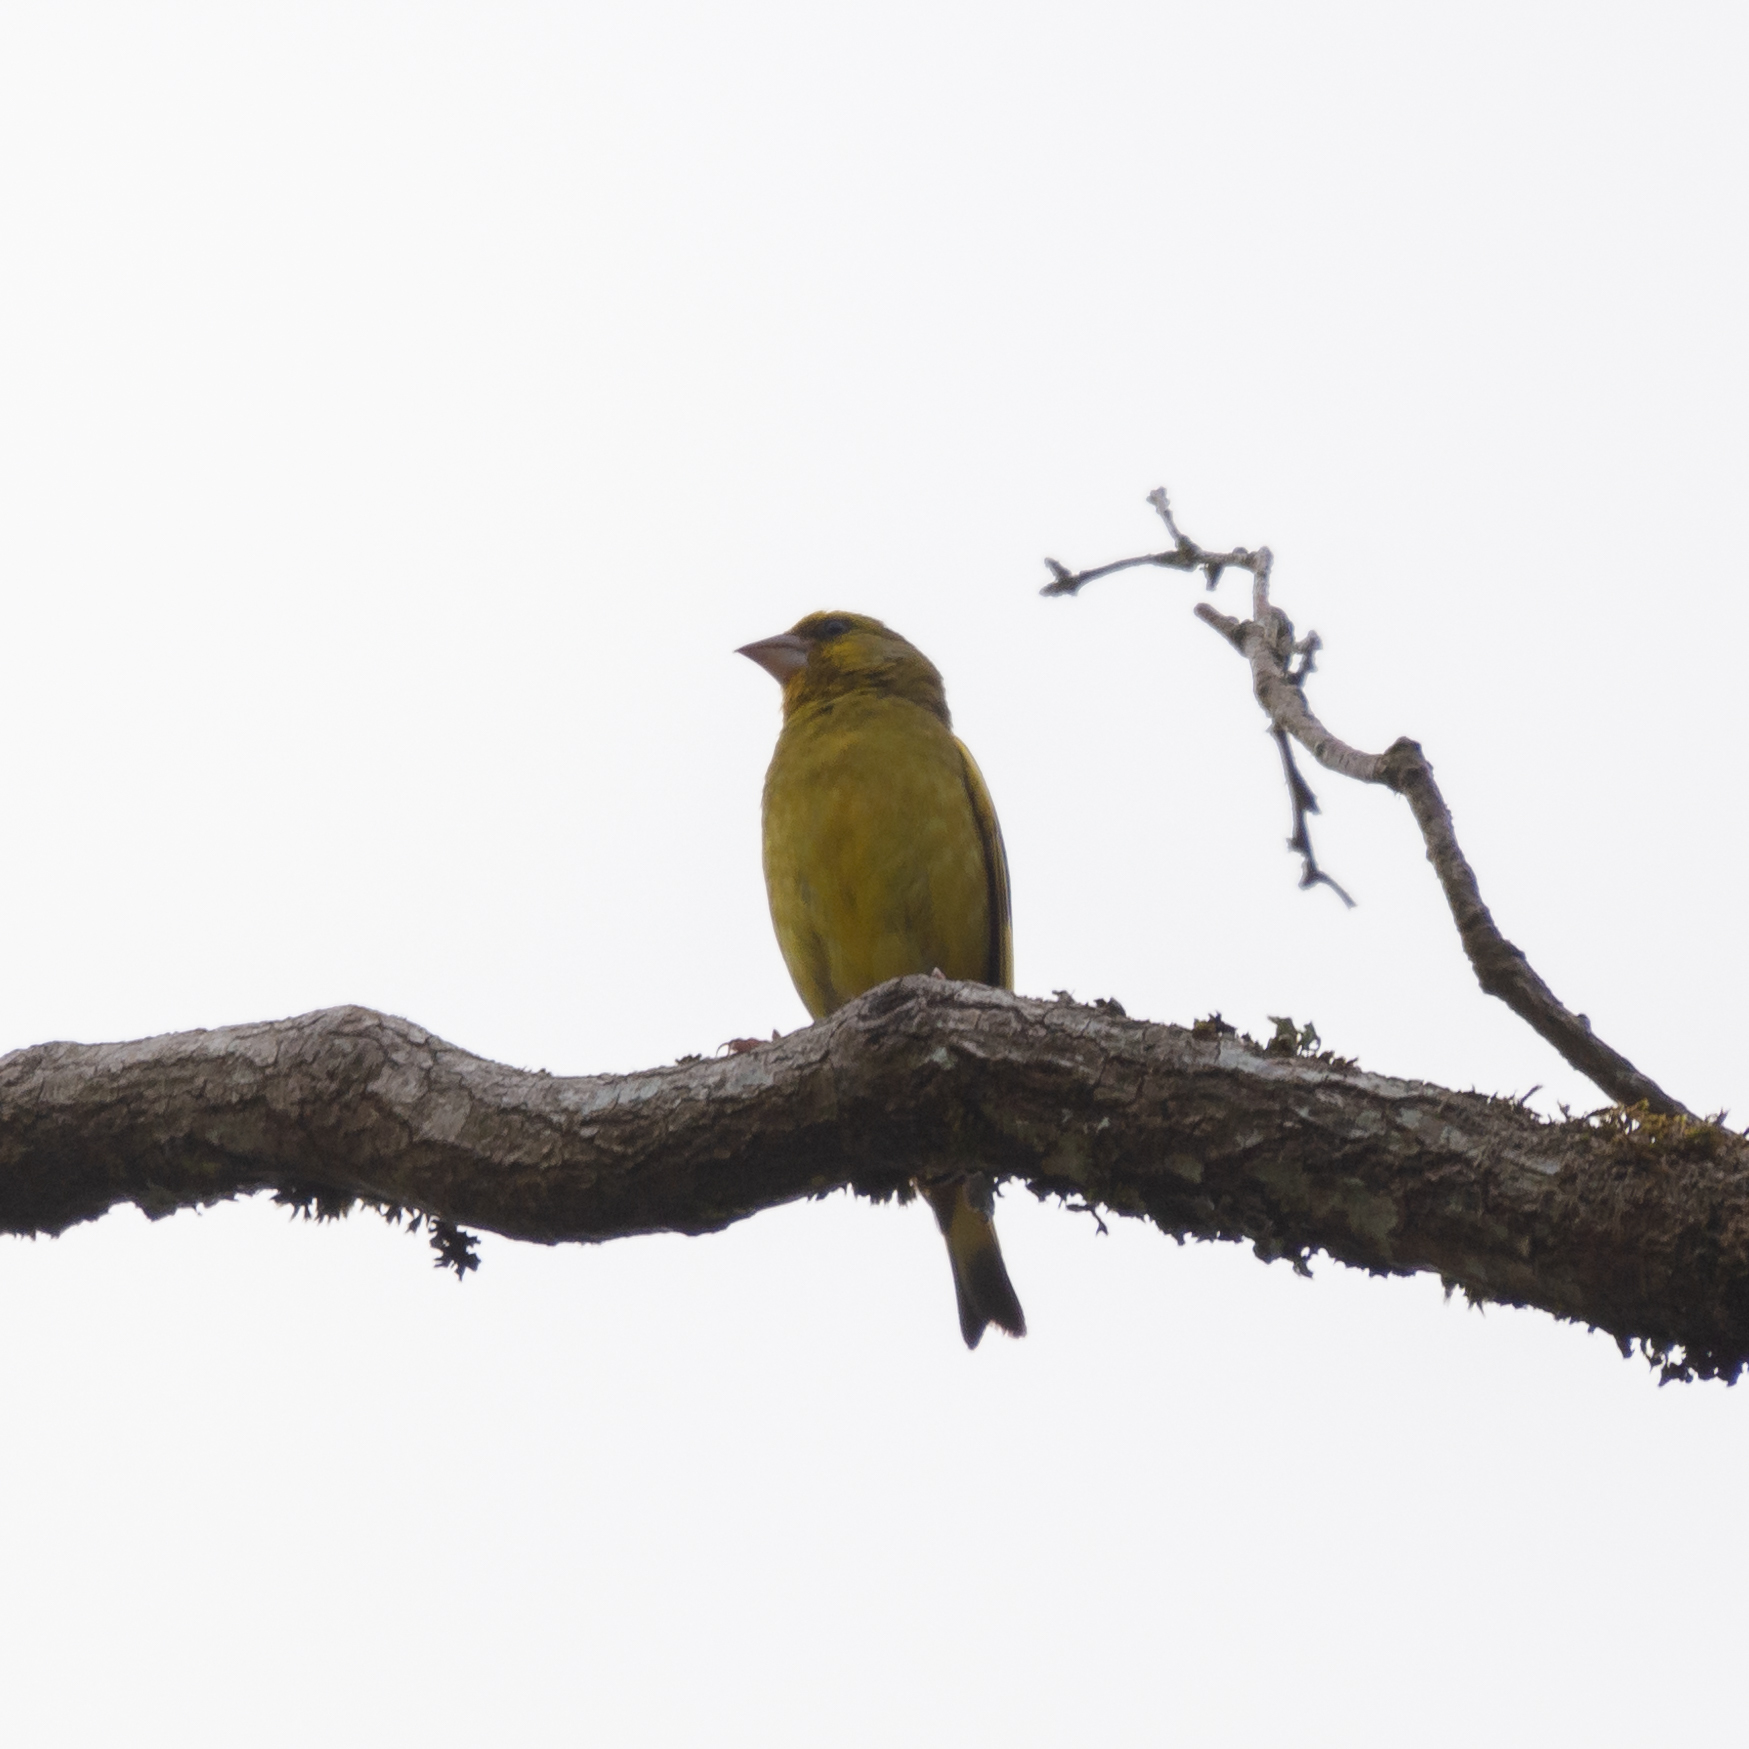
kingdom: Plantae
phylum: Tracheophyta
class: Liliopsida
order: Poales
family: Poaceae
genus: Chloris
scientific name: Chloris chloris
